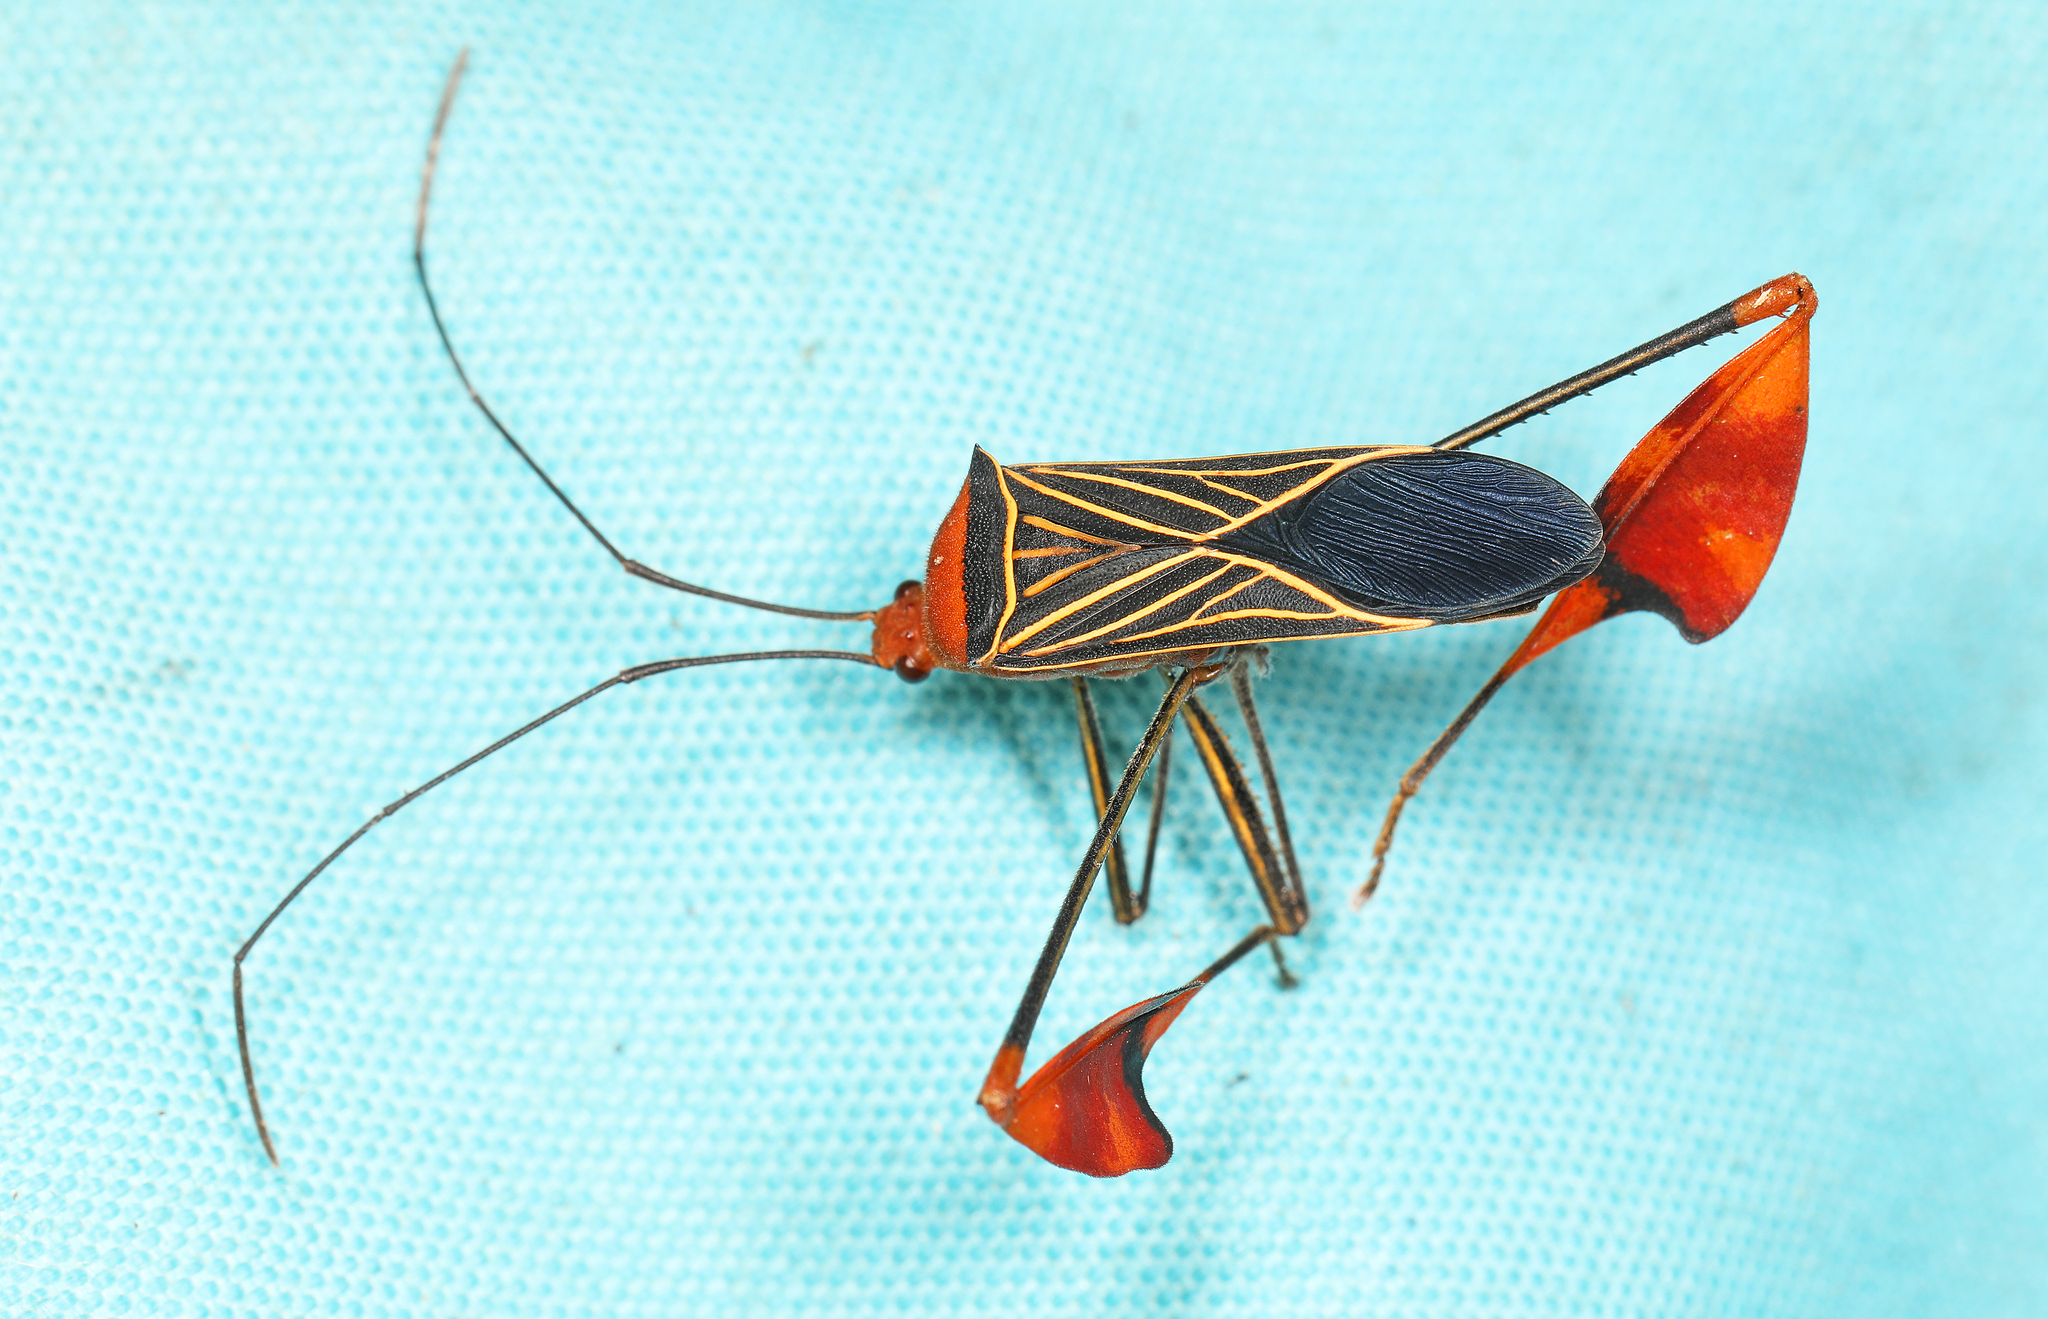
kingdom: Animalia
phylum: Arthropoda
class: Insecta
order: Hemiptera
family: Coreidae
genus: Bitta
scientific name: Bitta
